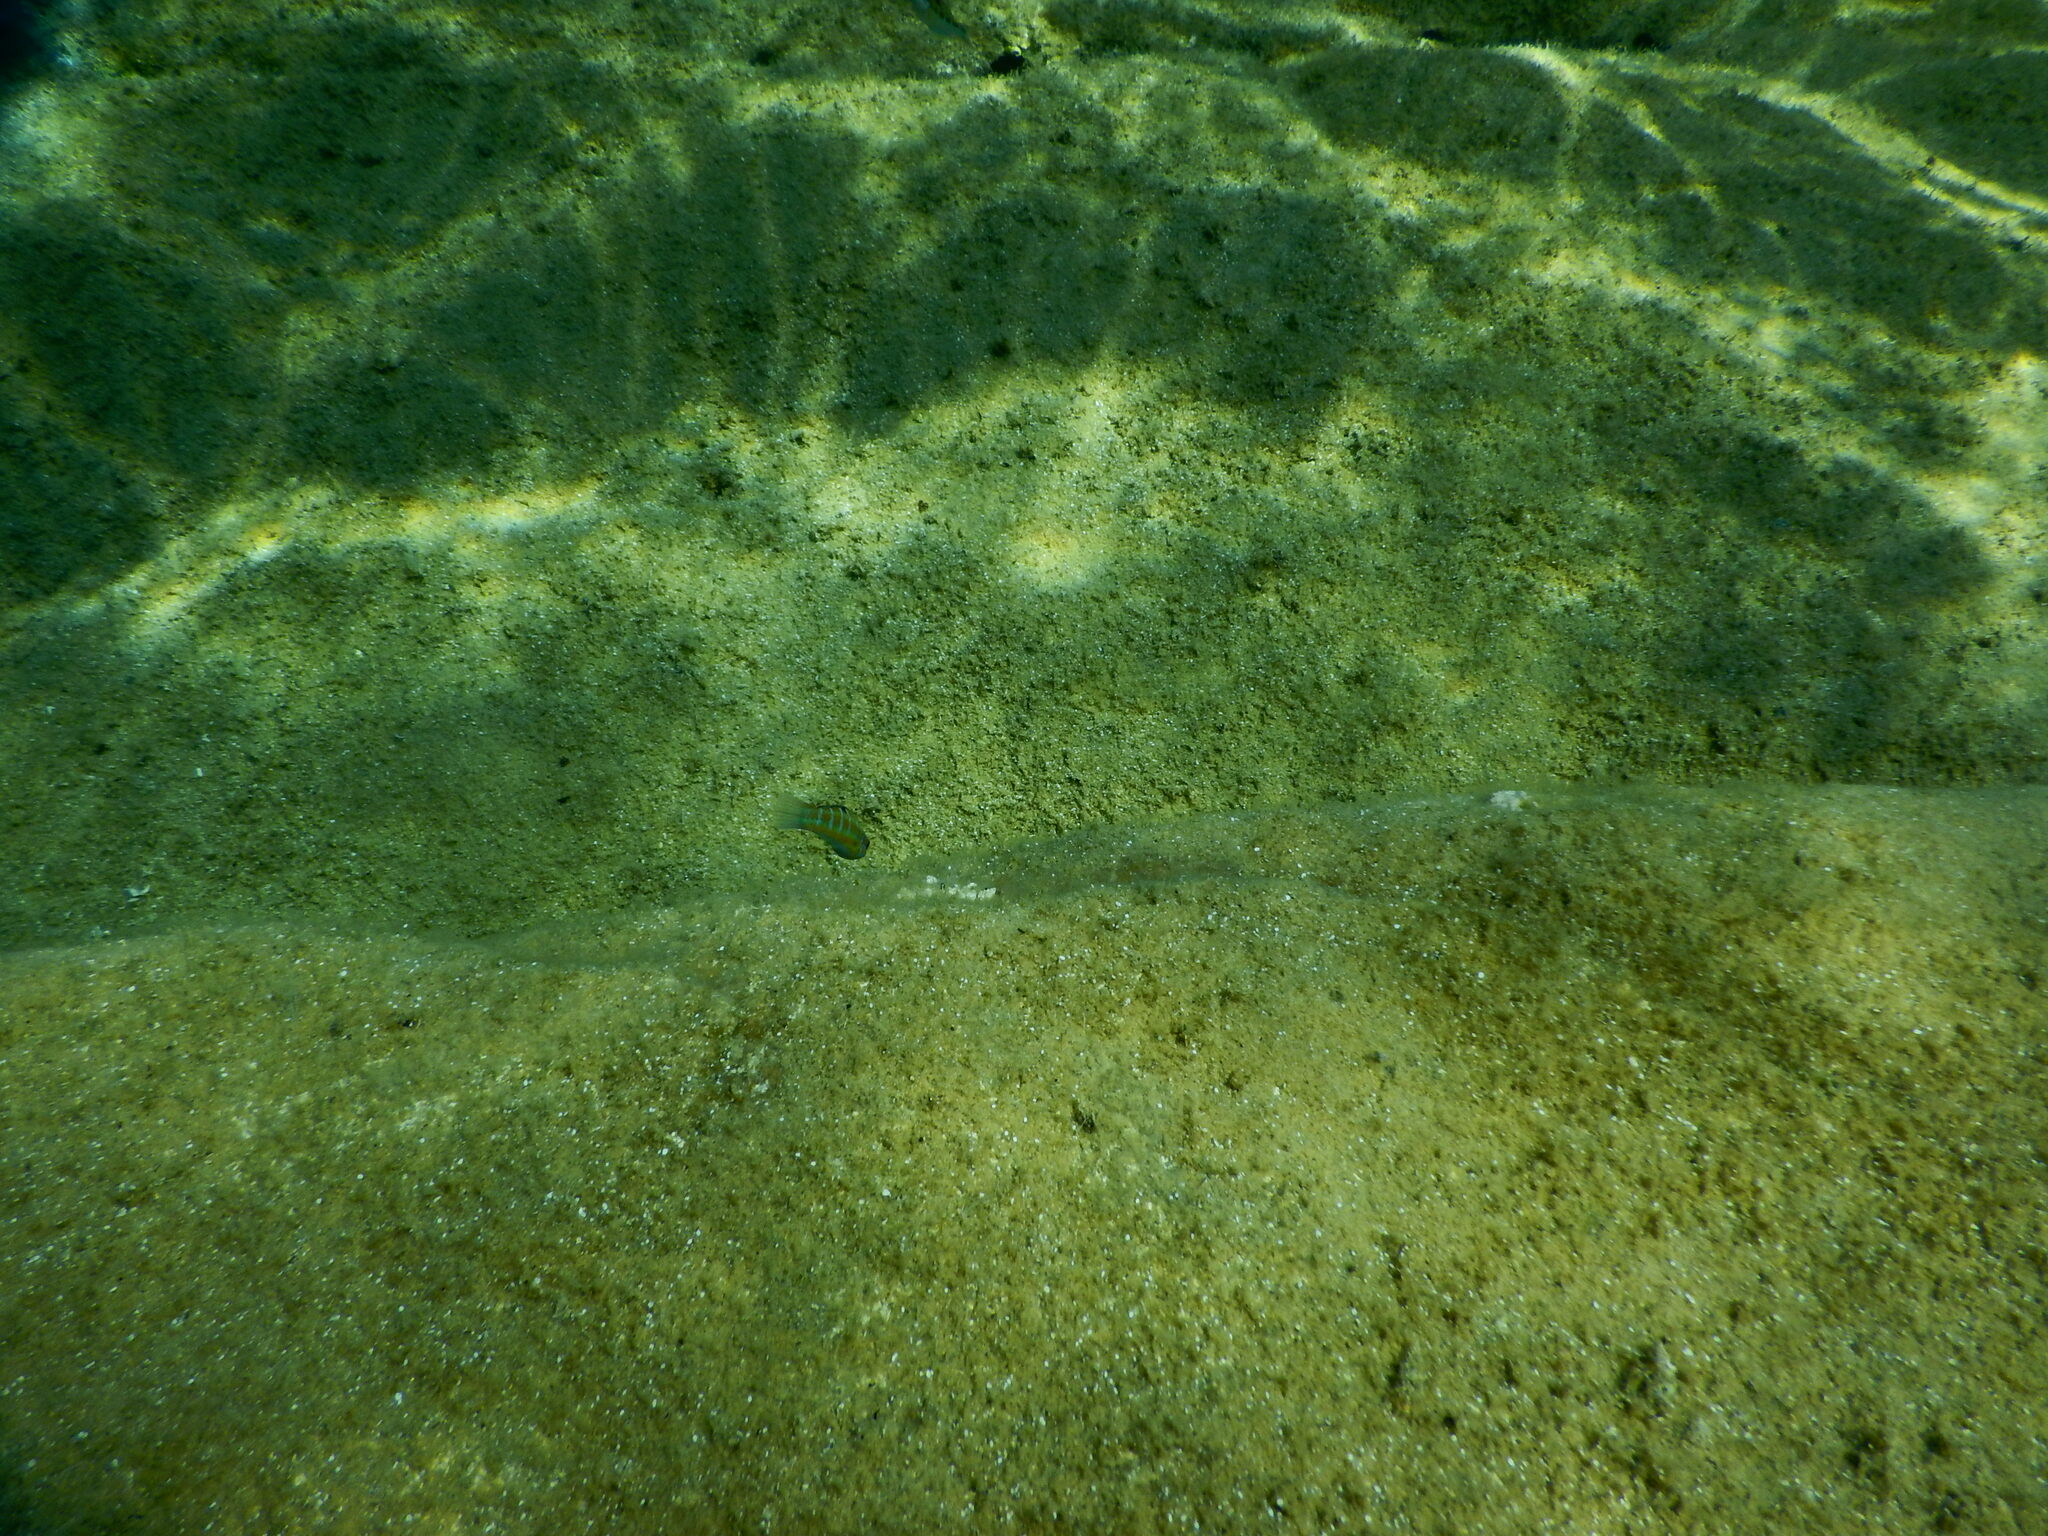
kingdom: Animalia
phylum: Chordata
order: Perciformes
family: Labridae
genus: Thalassoma
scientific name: Thalassoma pavo
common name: Ornate wrasse
